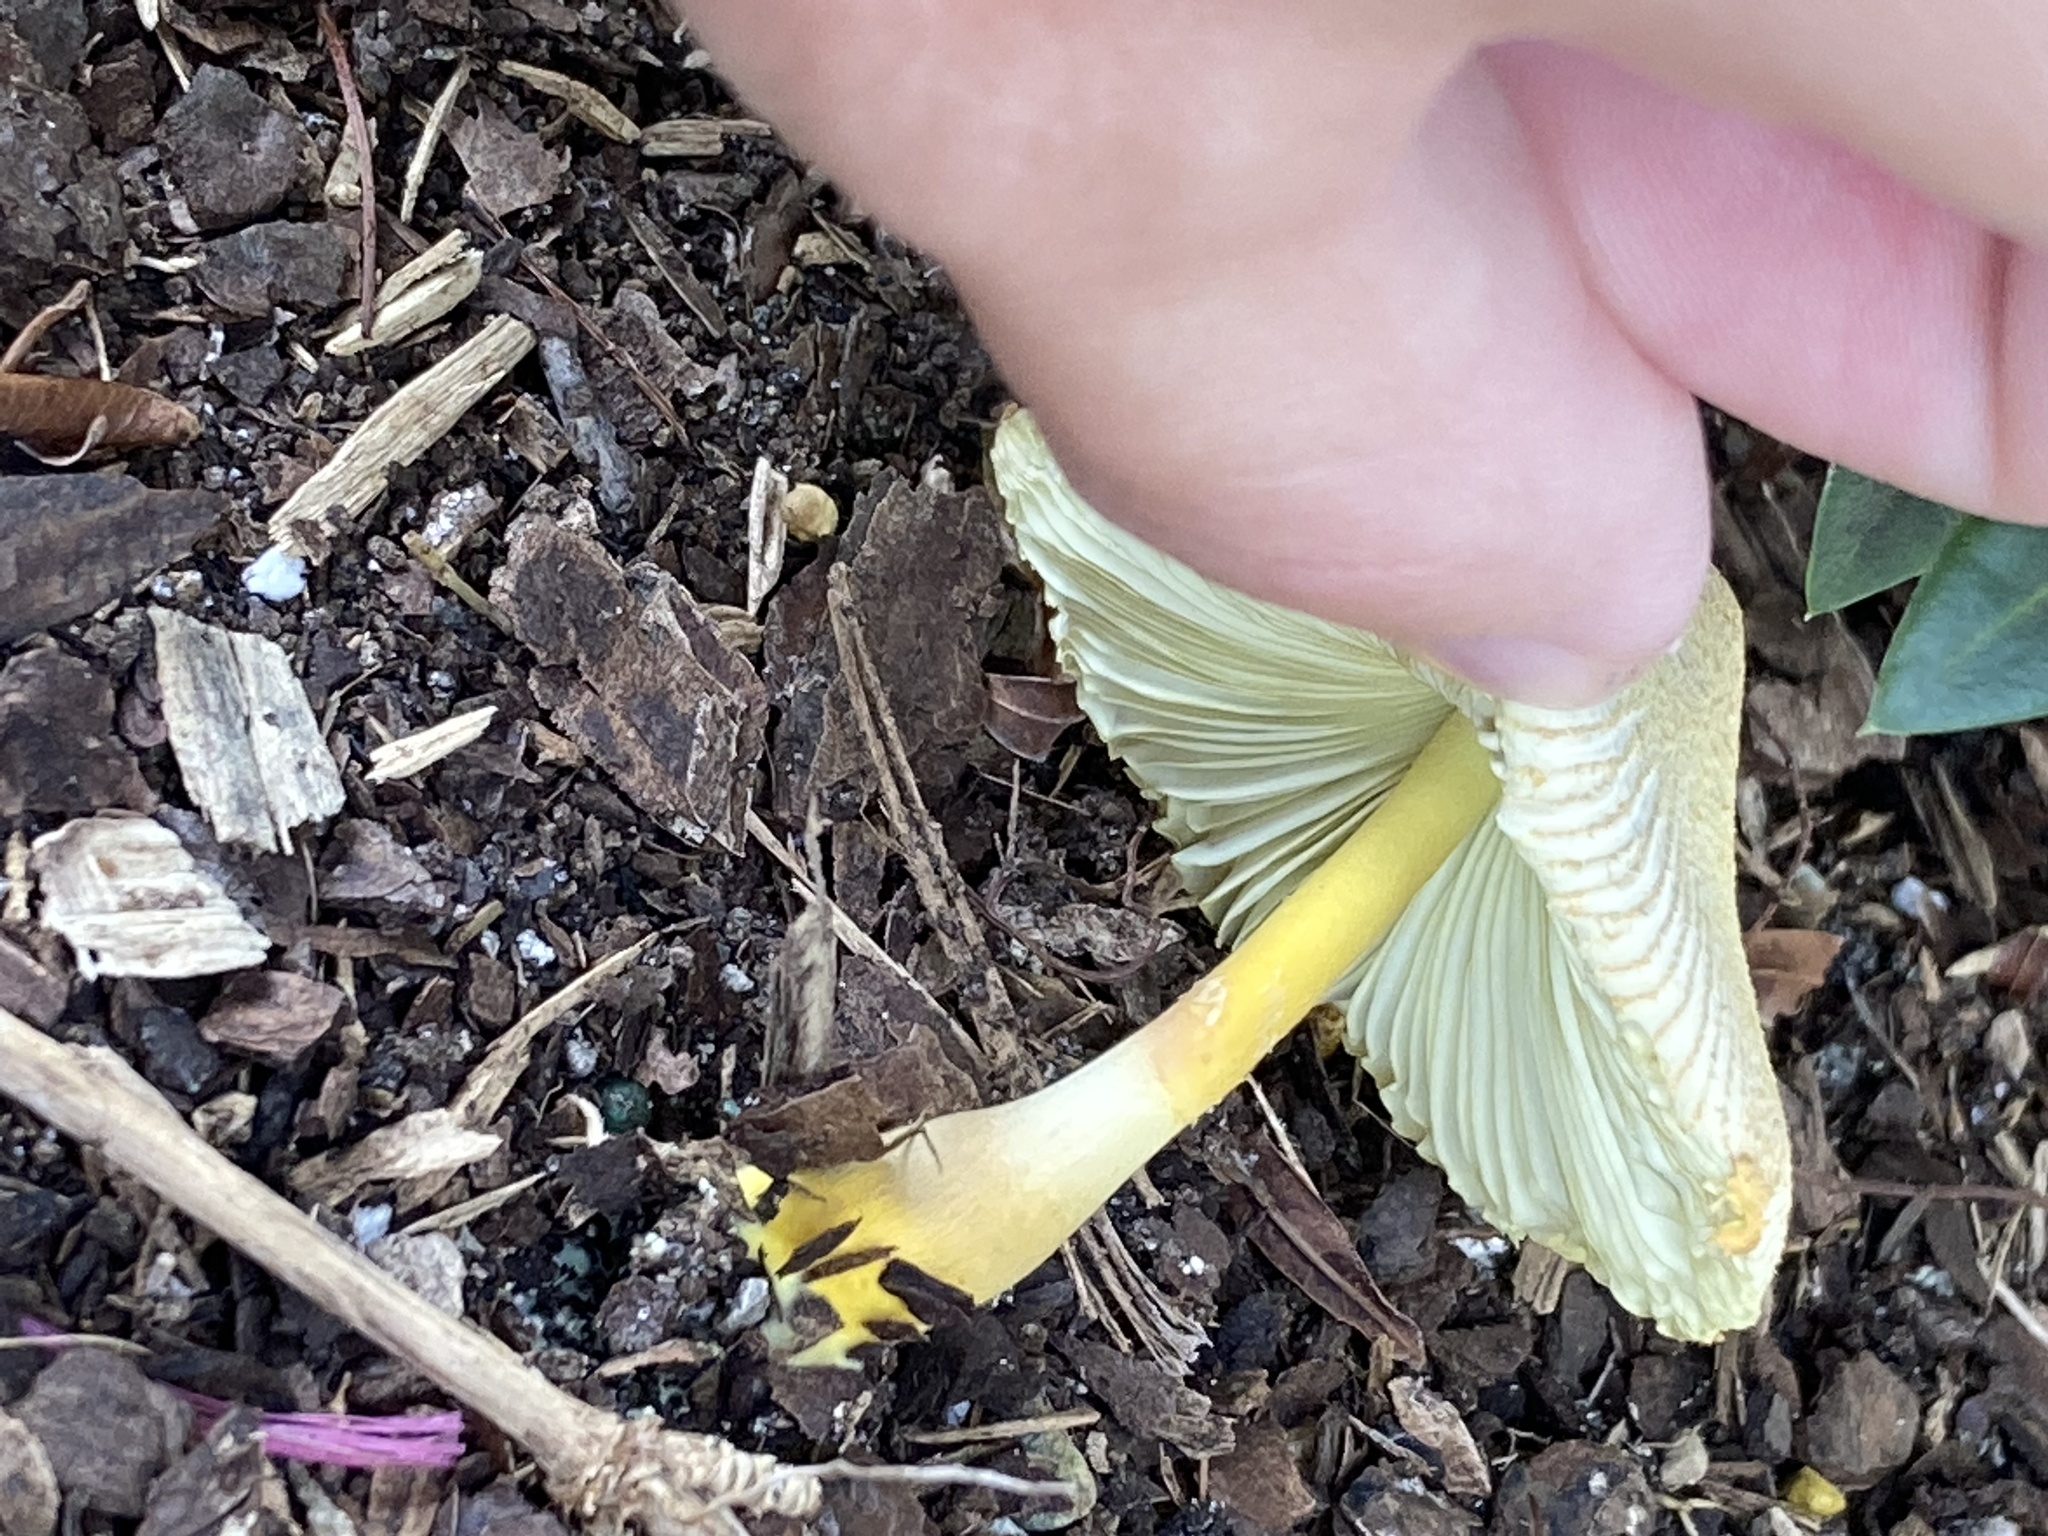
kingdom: Fungi
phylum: Basidiomycota
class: Agaricomycetes
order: Agaricales
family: Agaricaceae
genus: Leucocoprinus
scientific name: Leucocoprinus birnbaumii
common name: Plantpot dapperling
